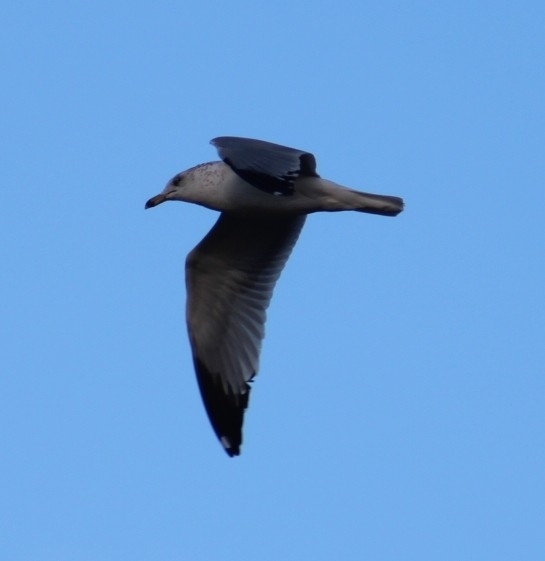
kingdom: Animalia
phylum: Chordata
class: Aves
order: Charadriiformes
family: Laridae
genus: Larus
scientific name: Larus delawarensis
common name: Ring-billed gull
